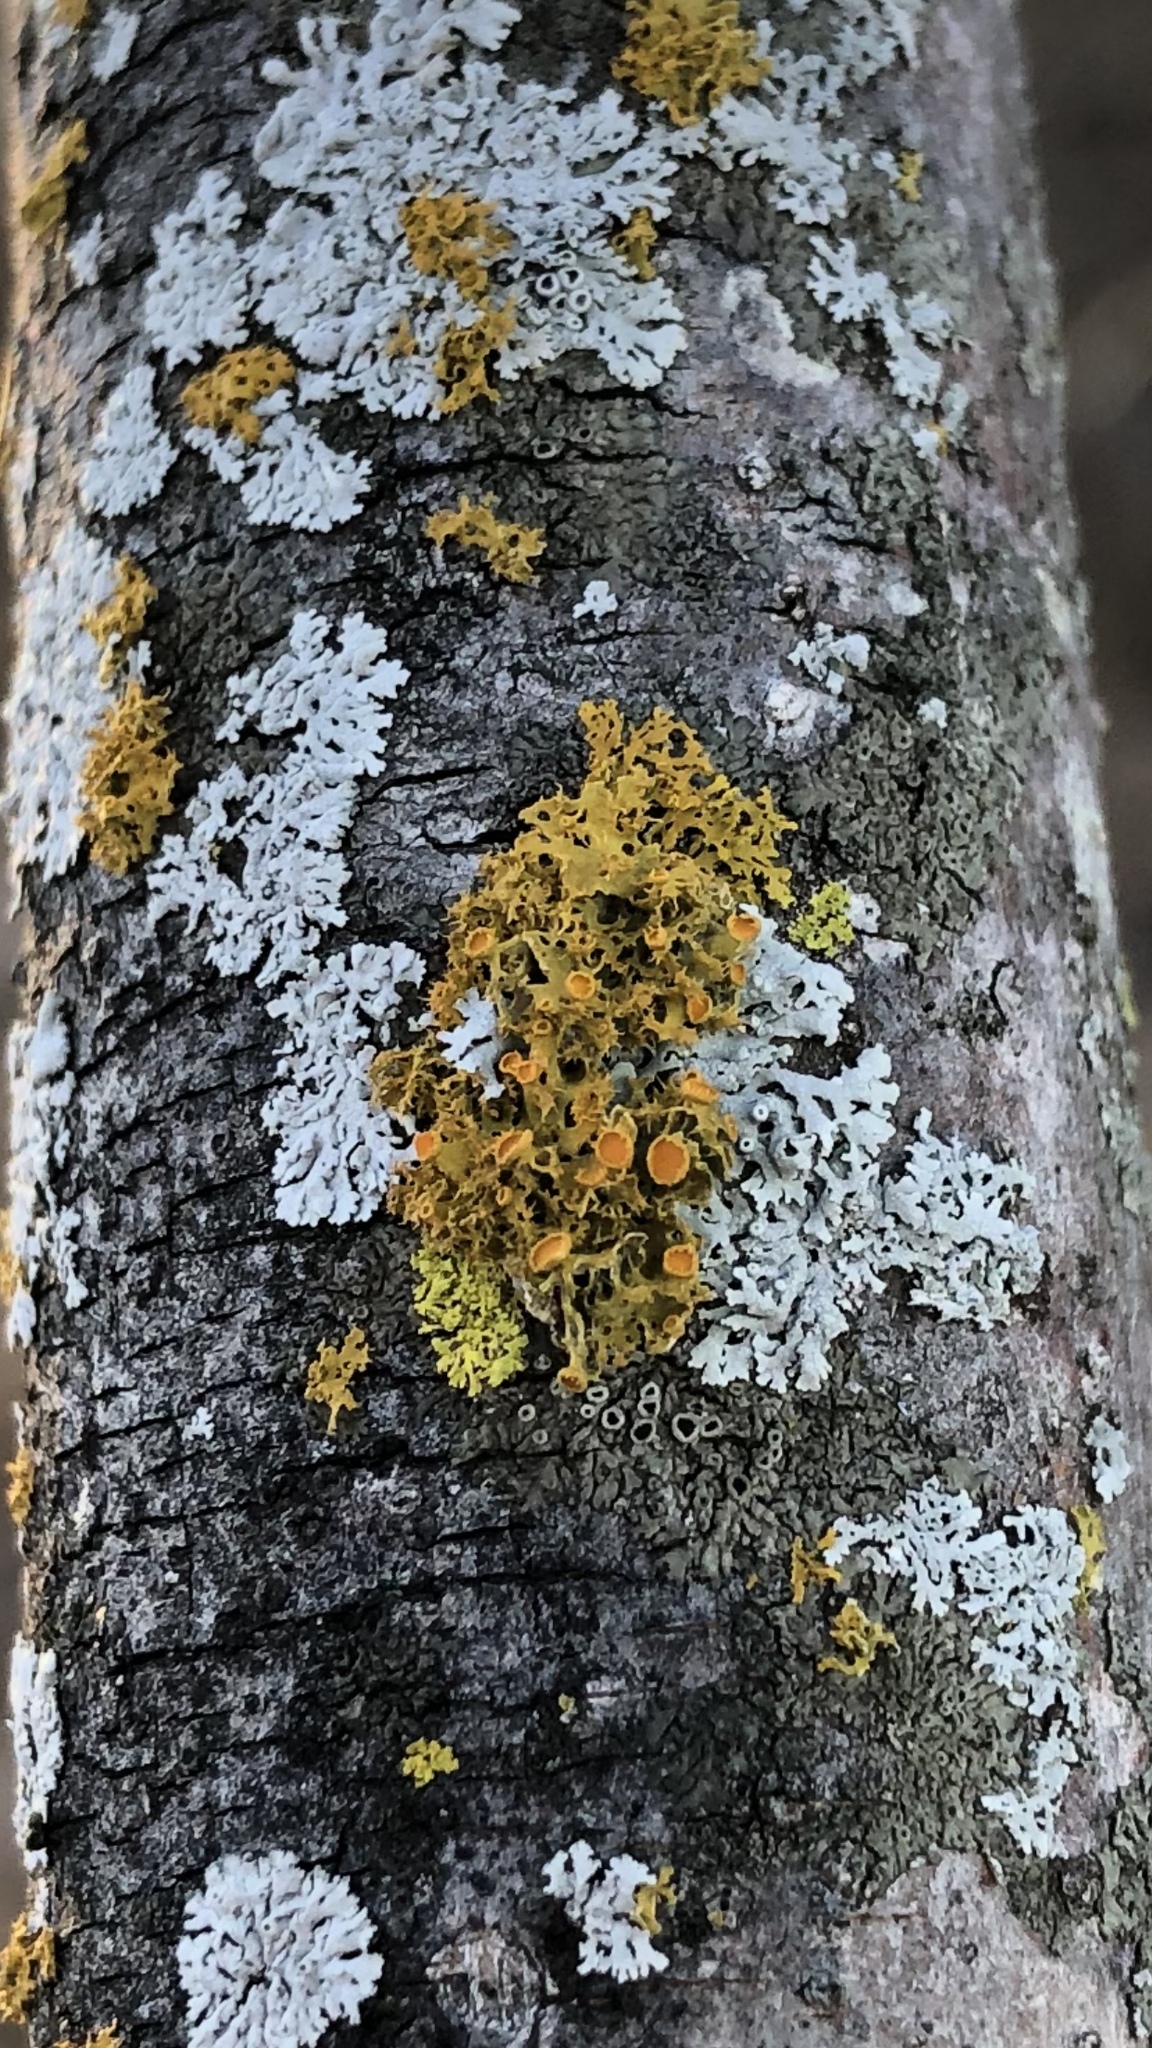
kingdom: Fungi
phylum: Ascomycota
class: Lecanoromycetes
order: Teloschistales
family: Teloschistaceae
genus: Niorma
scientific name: Niorma chrysophthalma
